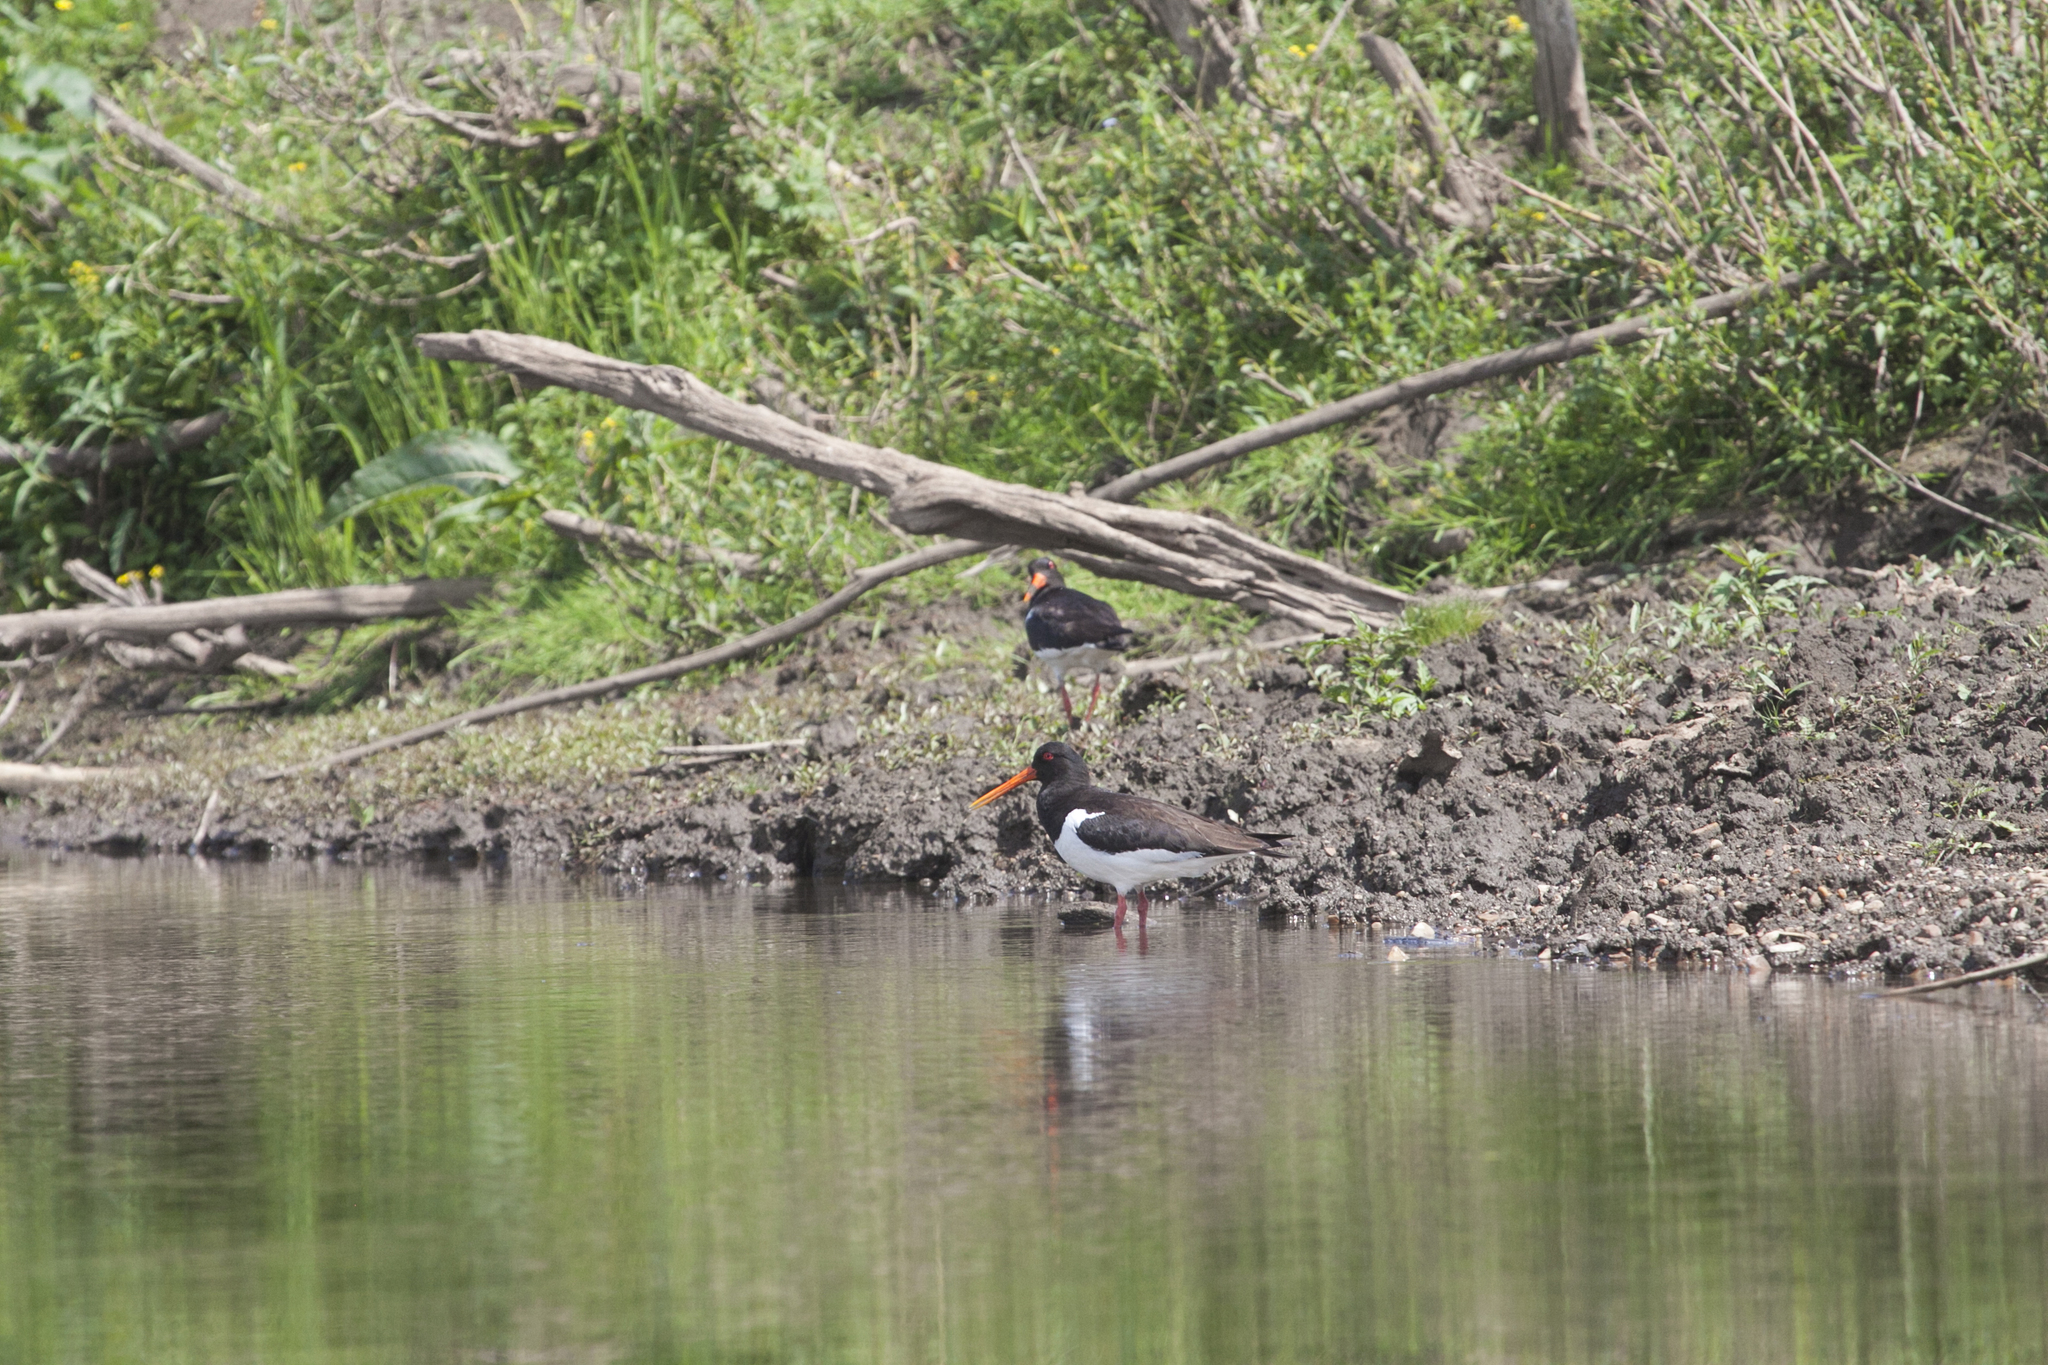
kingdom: Animalia
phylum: Chordata
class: Aves
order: Charadriiformes
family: Haematopodidae
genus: Haematopus
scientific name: Haematopus ostralegus
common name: Eurasian oystercatcher
